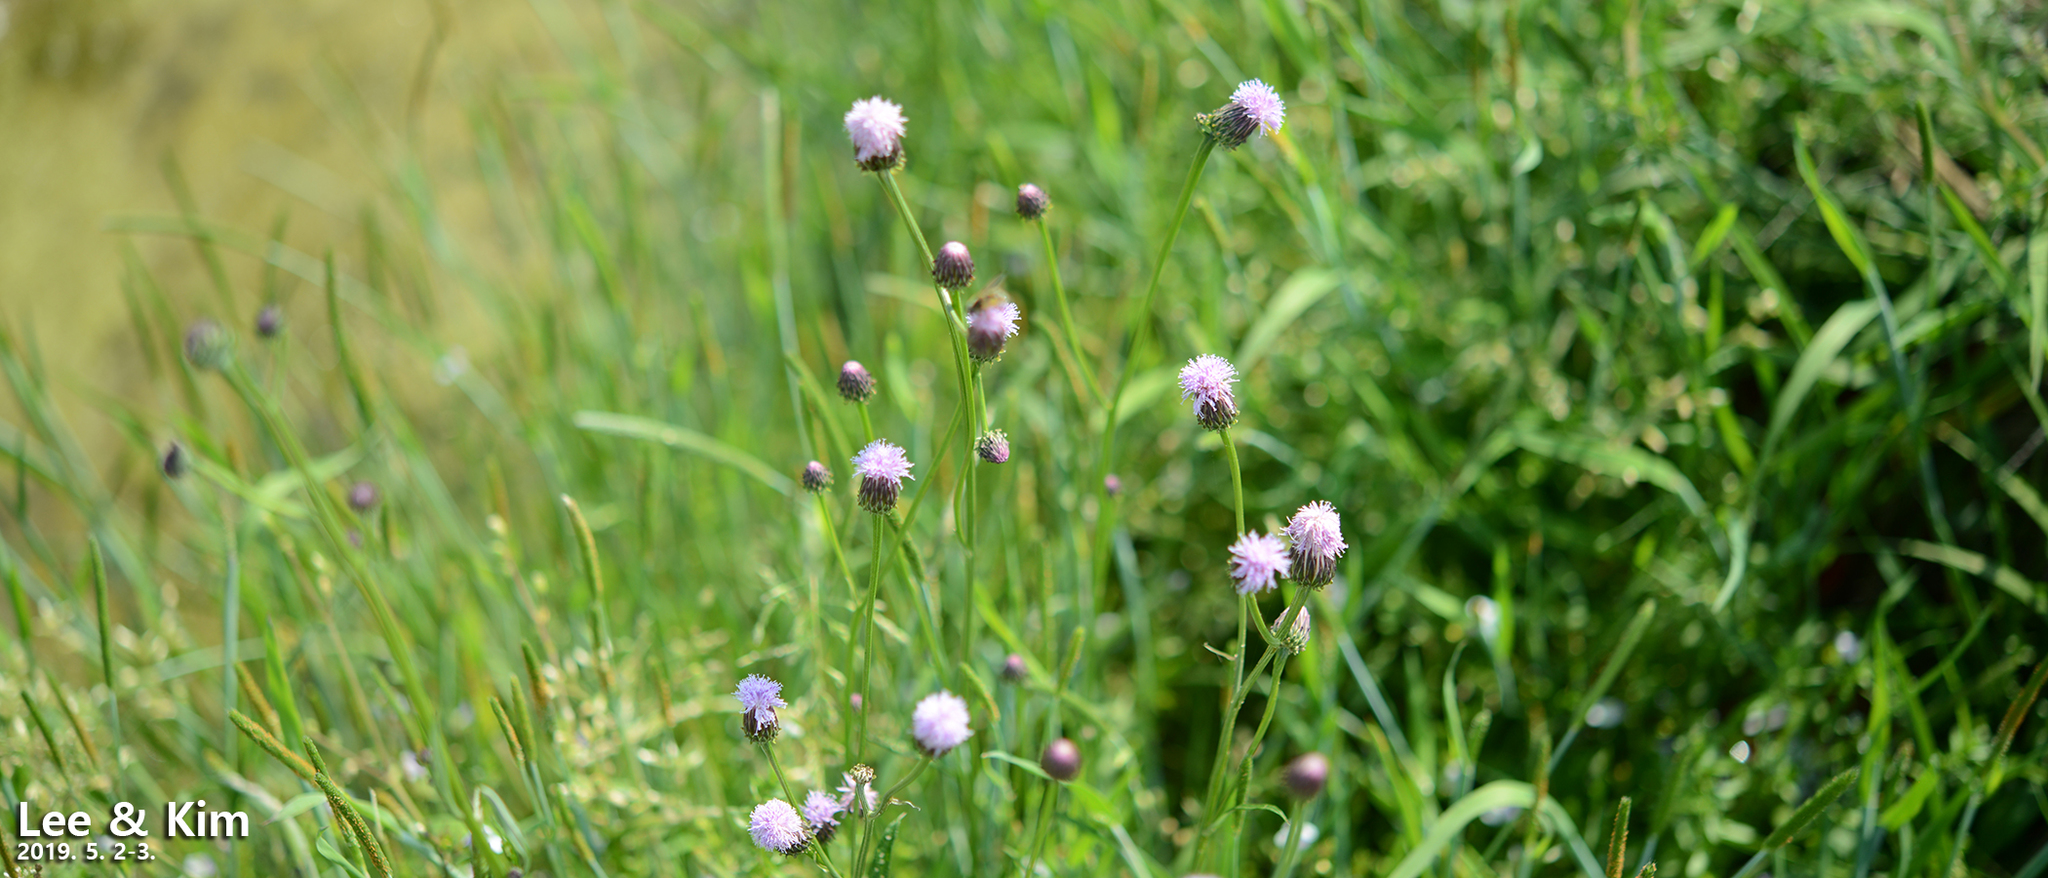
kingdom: Plantae
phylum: Tracheophyta
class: Magnoliopsida
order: Asterales
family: Asteraceae
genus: Saussurea
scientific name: Saussurea lyrata
